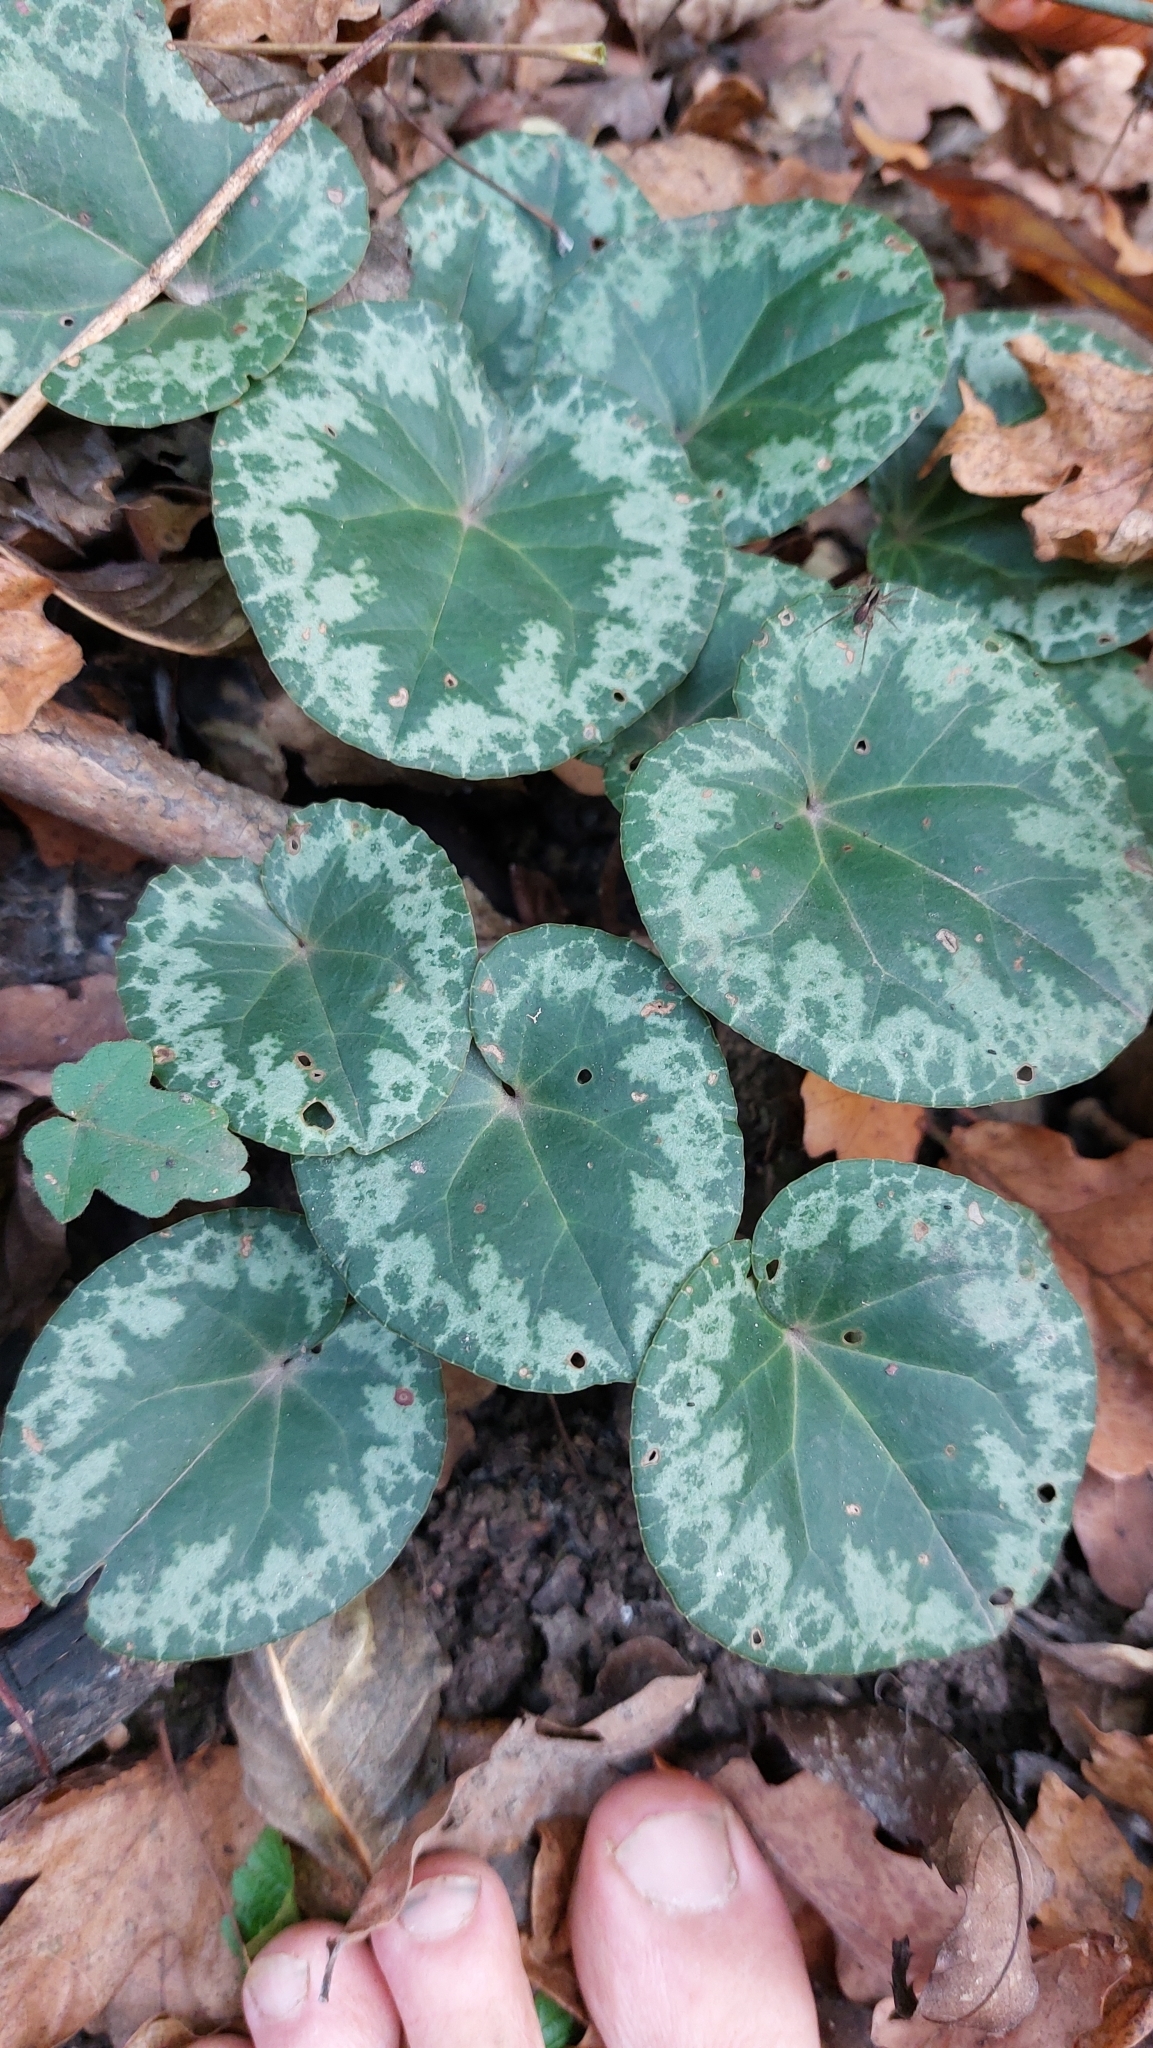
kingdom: Plantae
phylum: Tracheophyta
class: Magnoliopsida
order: Ericales
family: Primulaceae
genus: Cyclamen
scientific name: Cyclamen purpurascens
